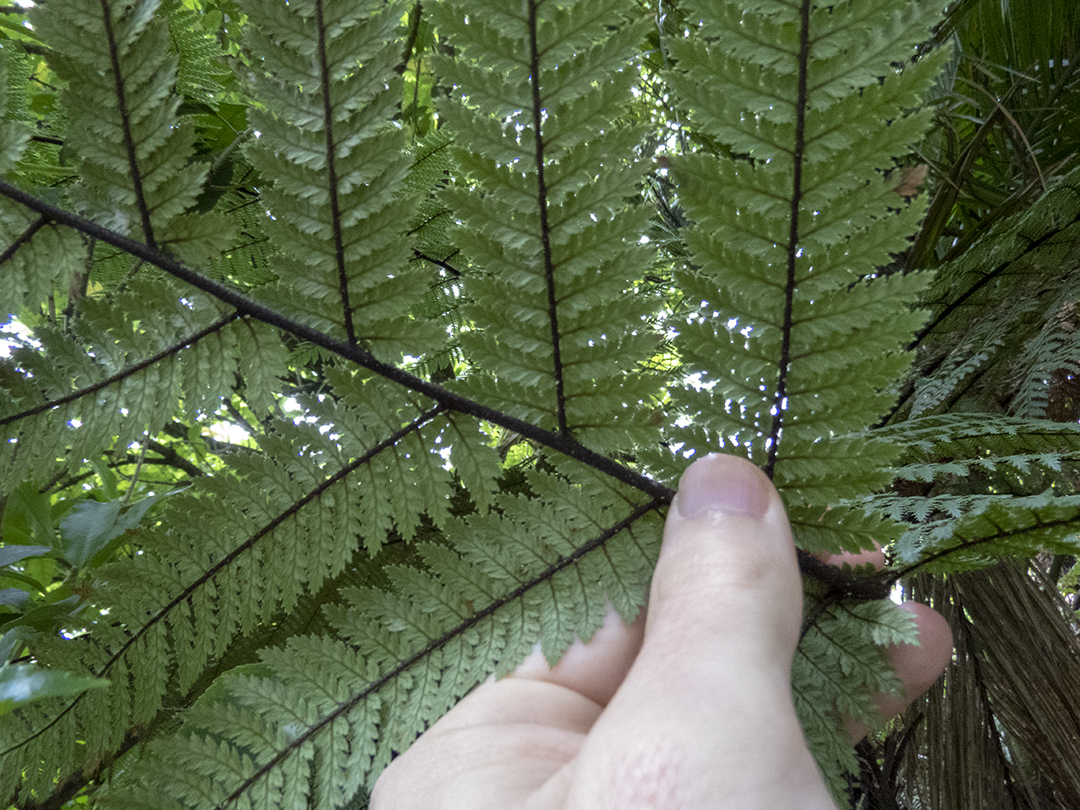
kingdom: Plantae
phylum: Tracheophyta
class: Polypodiopsida
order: Cyatheales
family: Dicksoniaceae
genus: Dicksonia
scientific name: Dicksonia squarrosa
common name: Hard treefern
